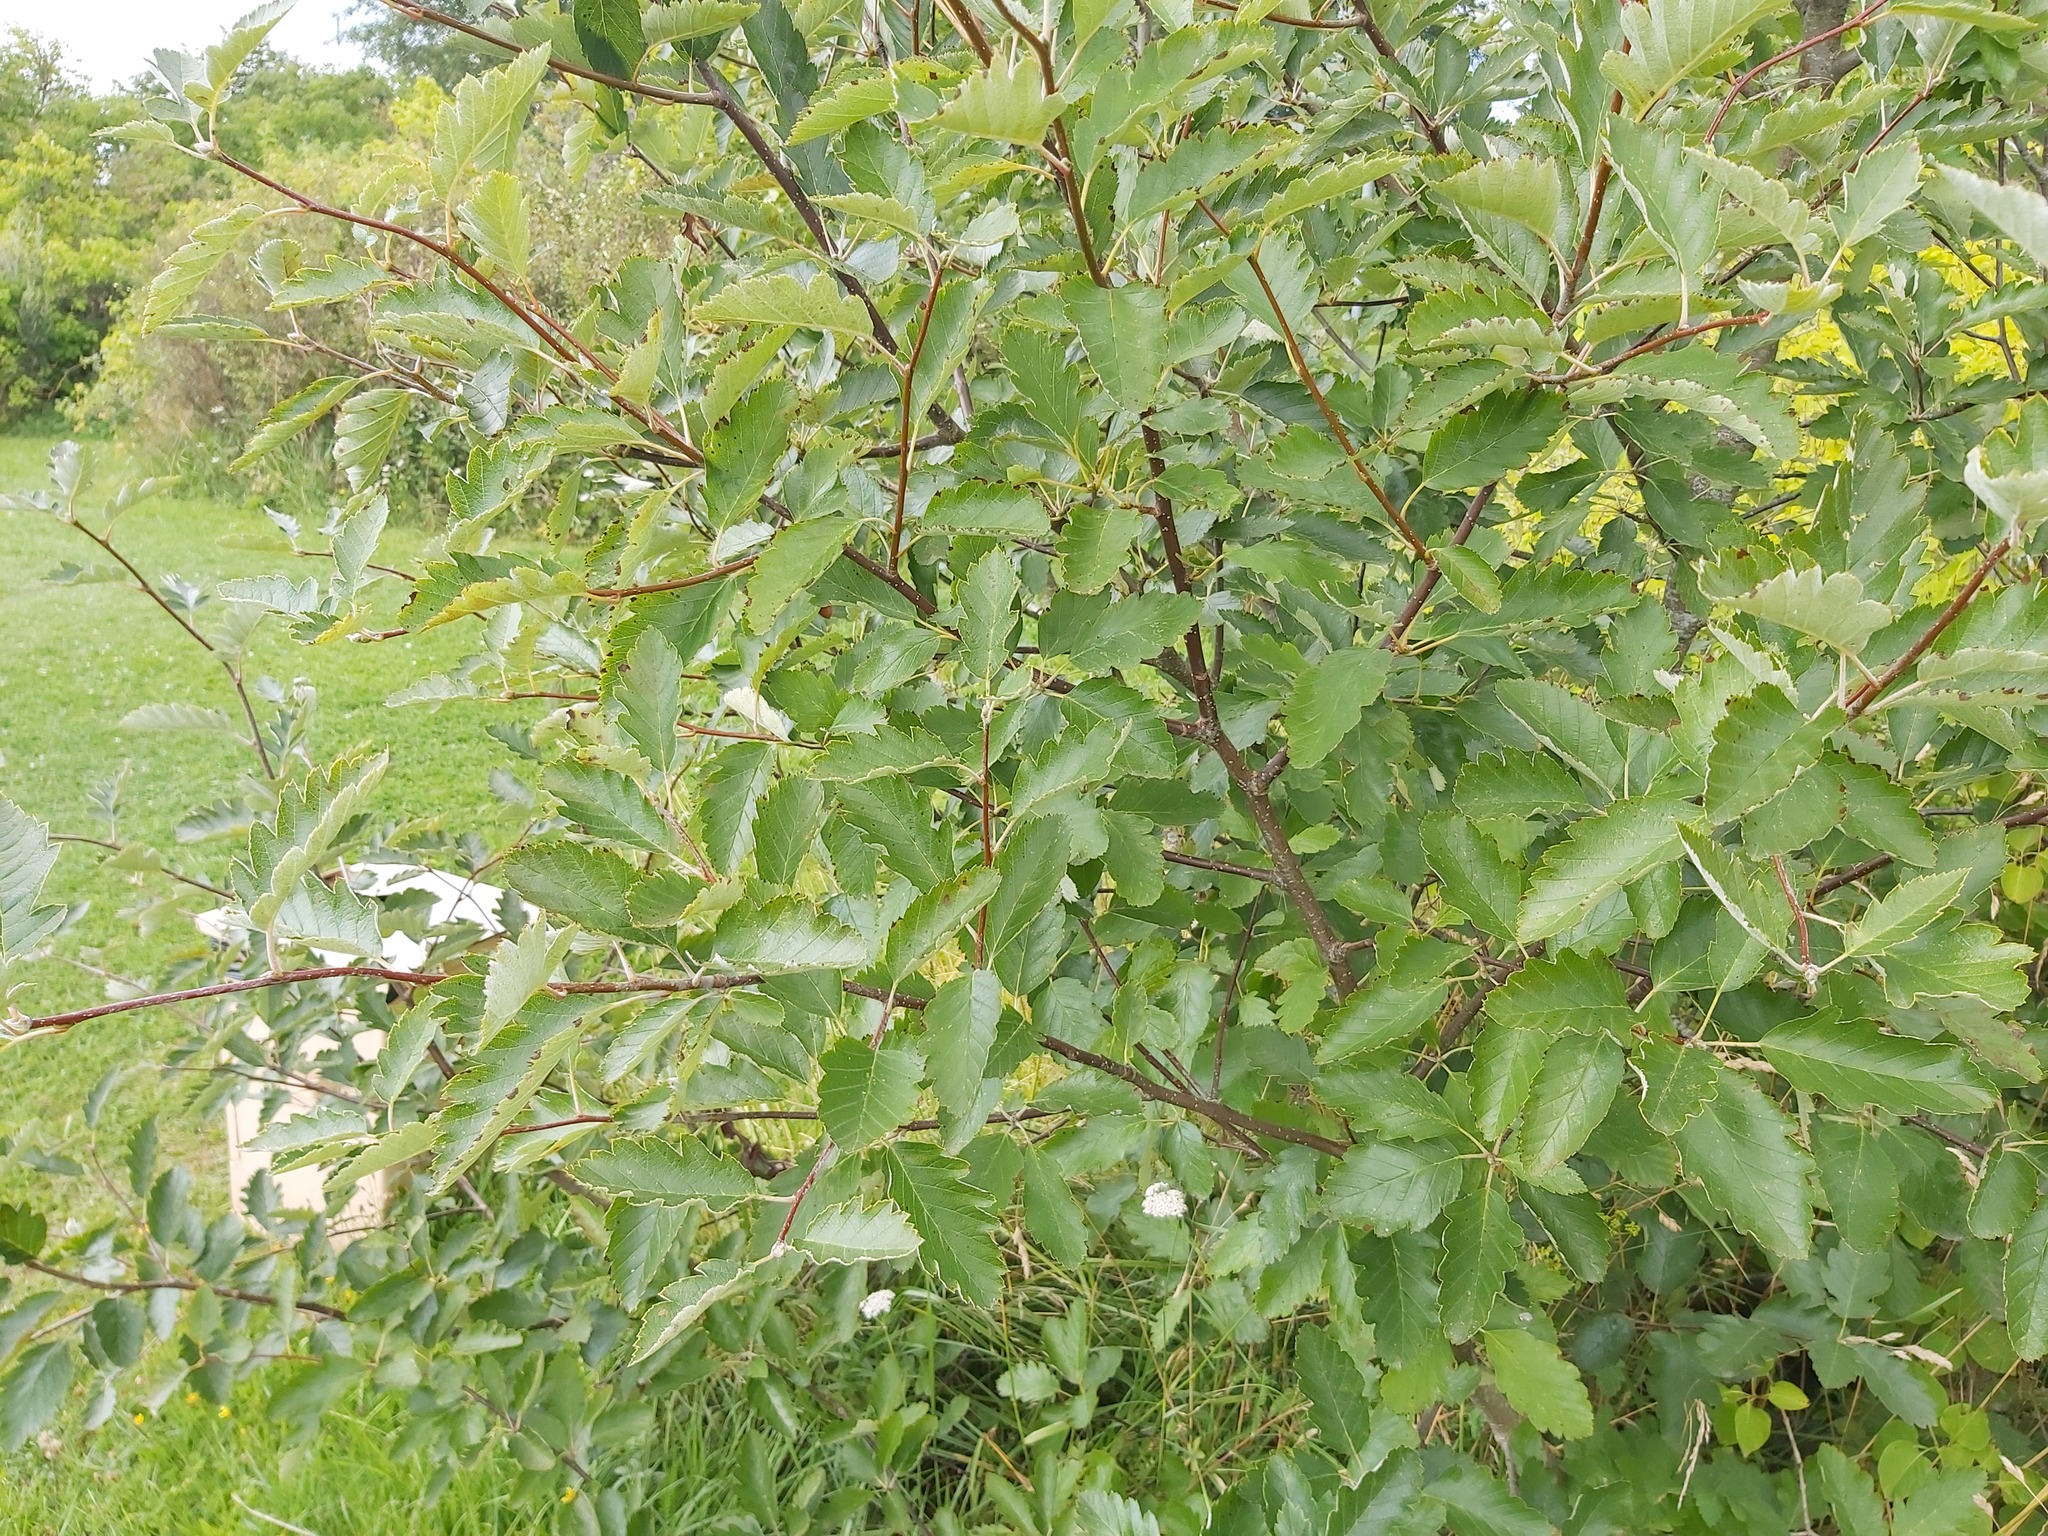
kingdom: Plantae
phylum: Tracheophyta
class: Magnoliopsida
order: Rosales
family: Rosaceae
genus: Scandosorbus
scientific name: Scandosorbus intermedia
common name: Swedish whitebeam
